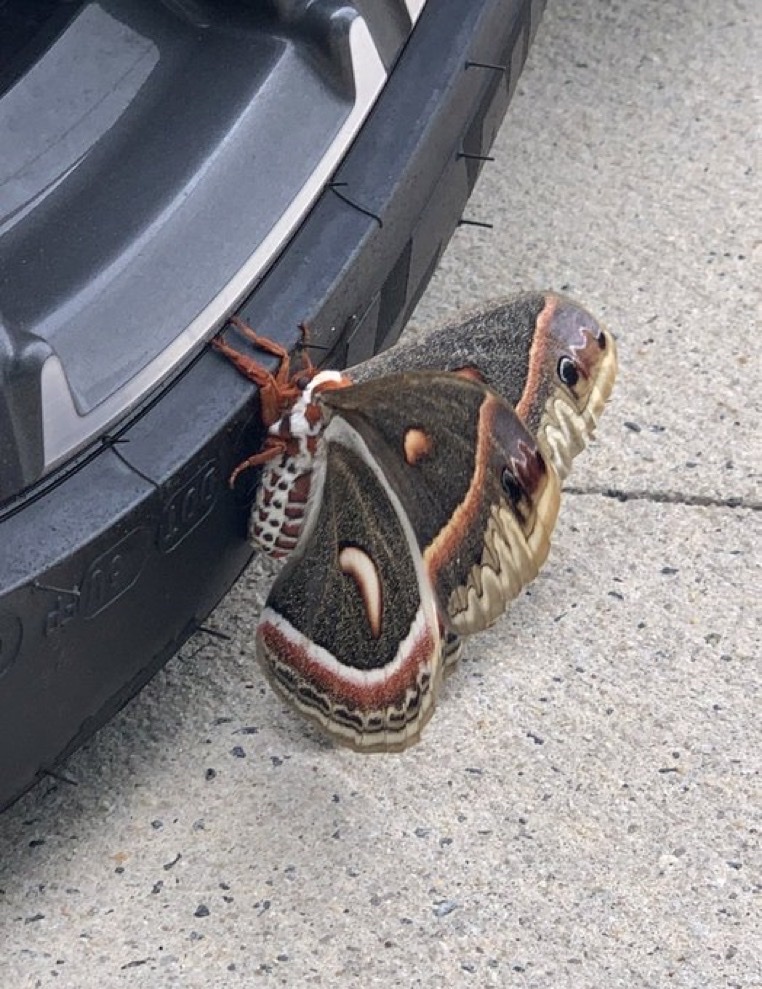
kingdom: Animalia
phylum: Arthropoda
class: Insecta
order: Lepidoptera
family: Saturniidae
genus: Hyalophora
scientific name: Hyalophora cecropia
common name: Cecropia silkmoth
